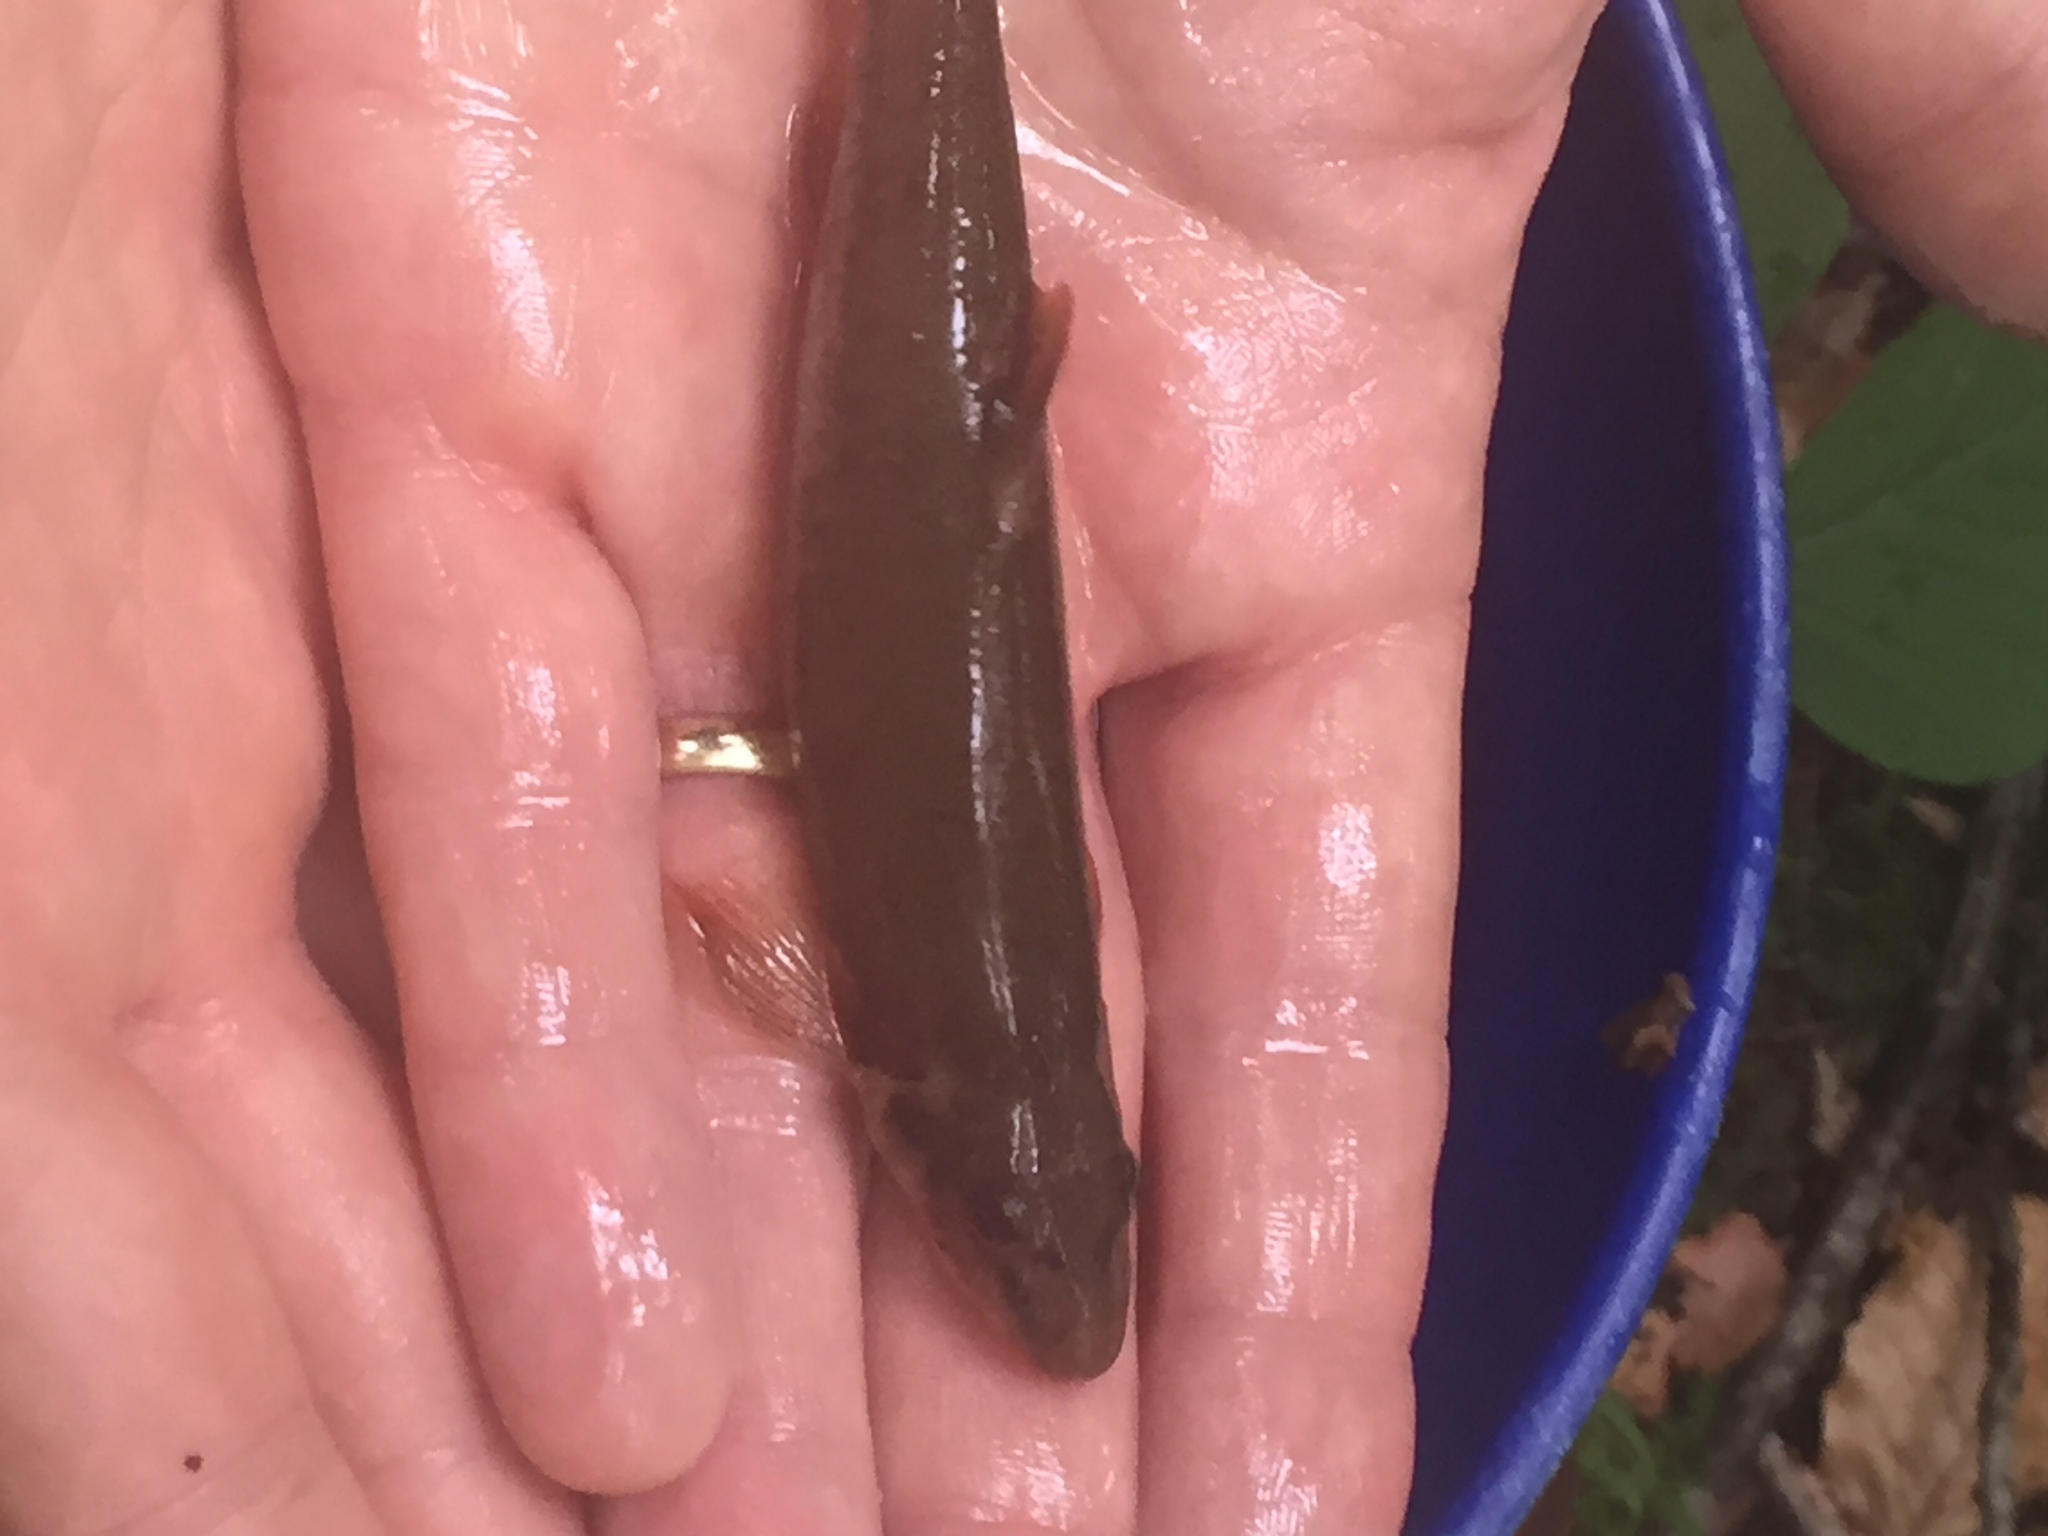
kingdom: Animalia
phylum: Chordata
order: Cypriniformes
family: Cyprinidae
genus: Rhinichthys
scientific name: Rhinichthys cataractae
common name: Longnose dace
